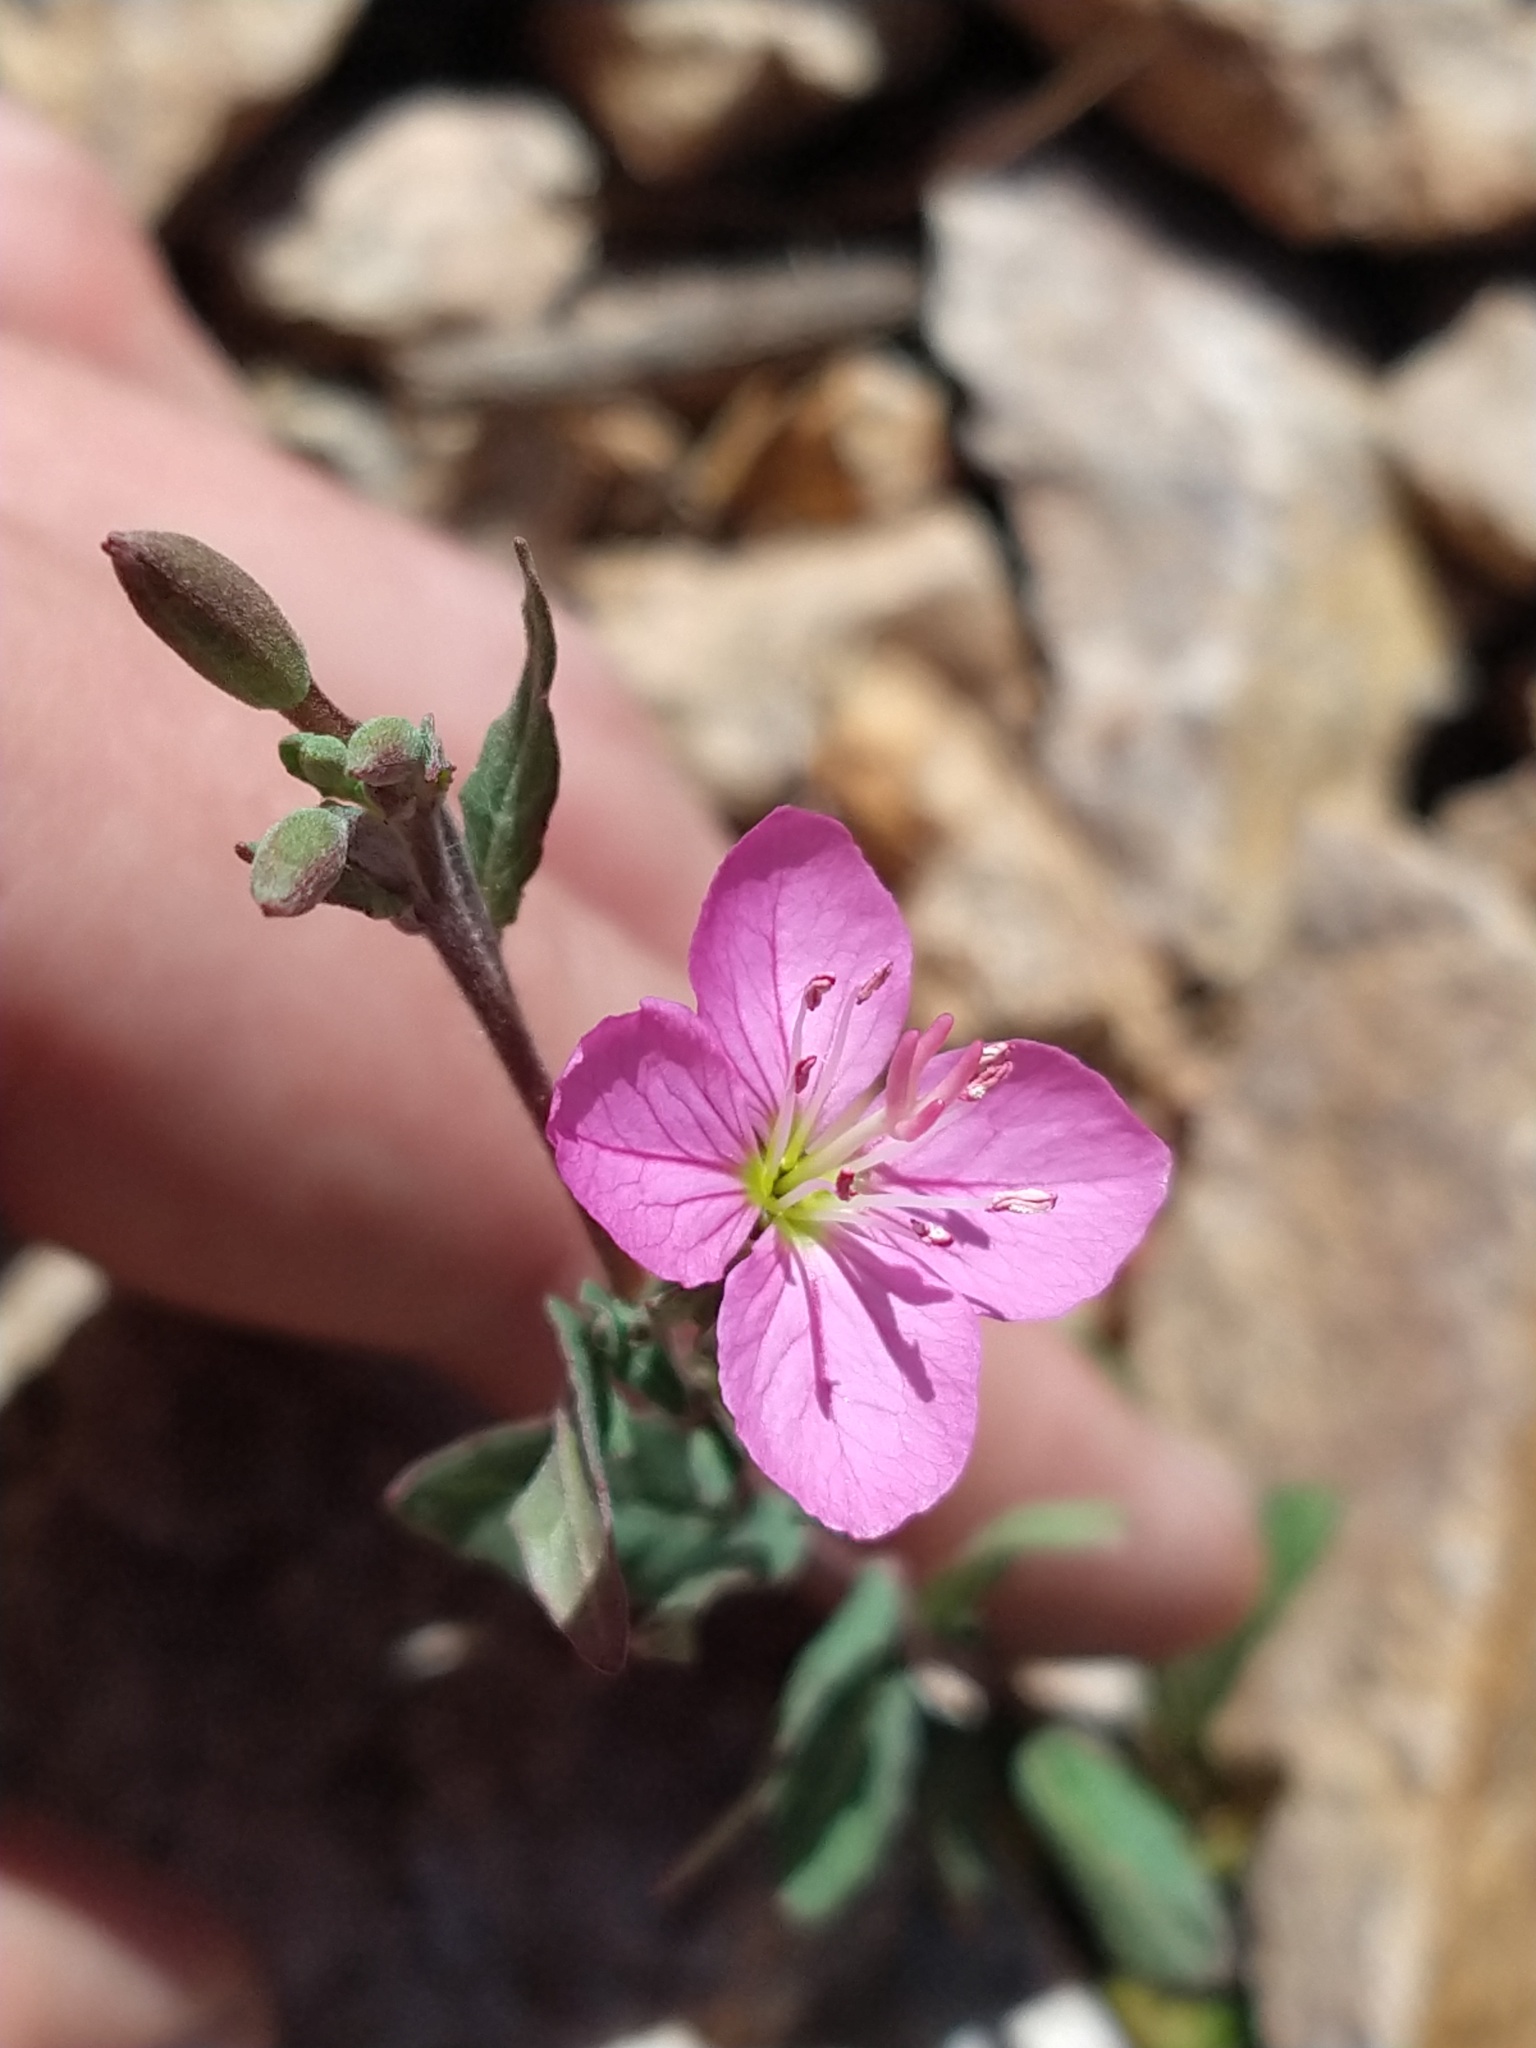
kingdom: Plantae
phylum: Tracheophyta
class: Magnoliopsida
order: Myrtales
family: Onagraceae
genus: Oenothera
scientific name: Oenothera rosea
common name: Rosy evening-primrose
